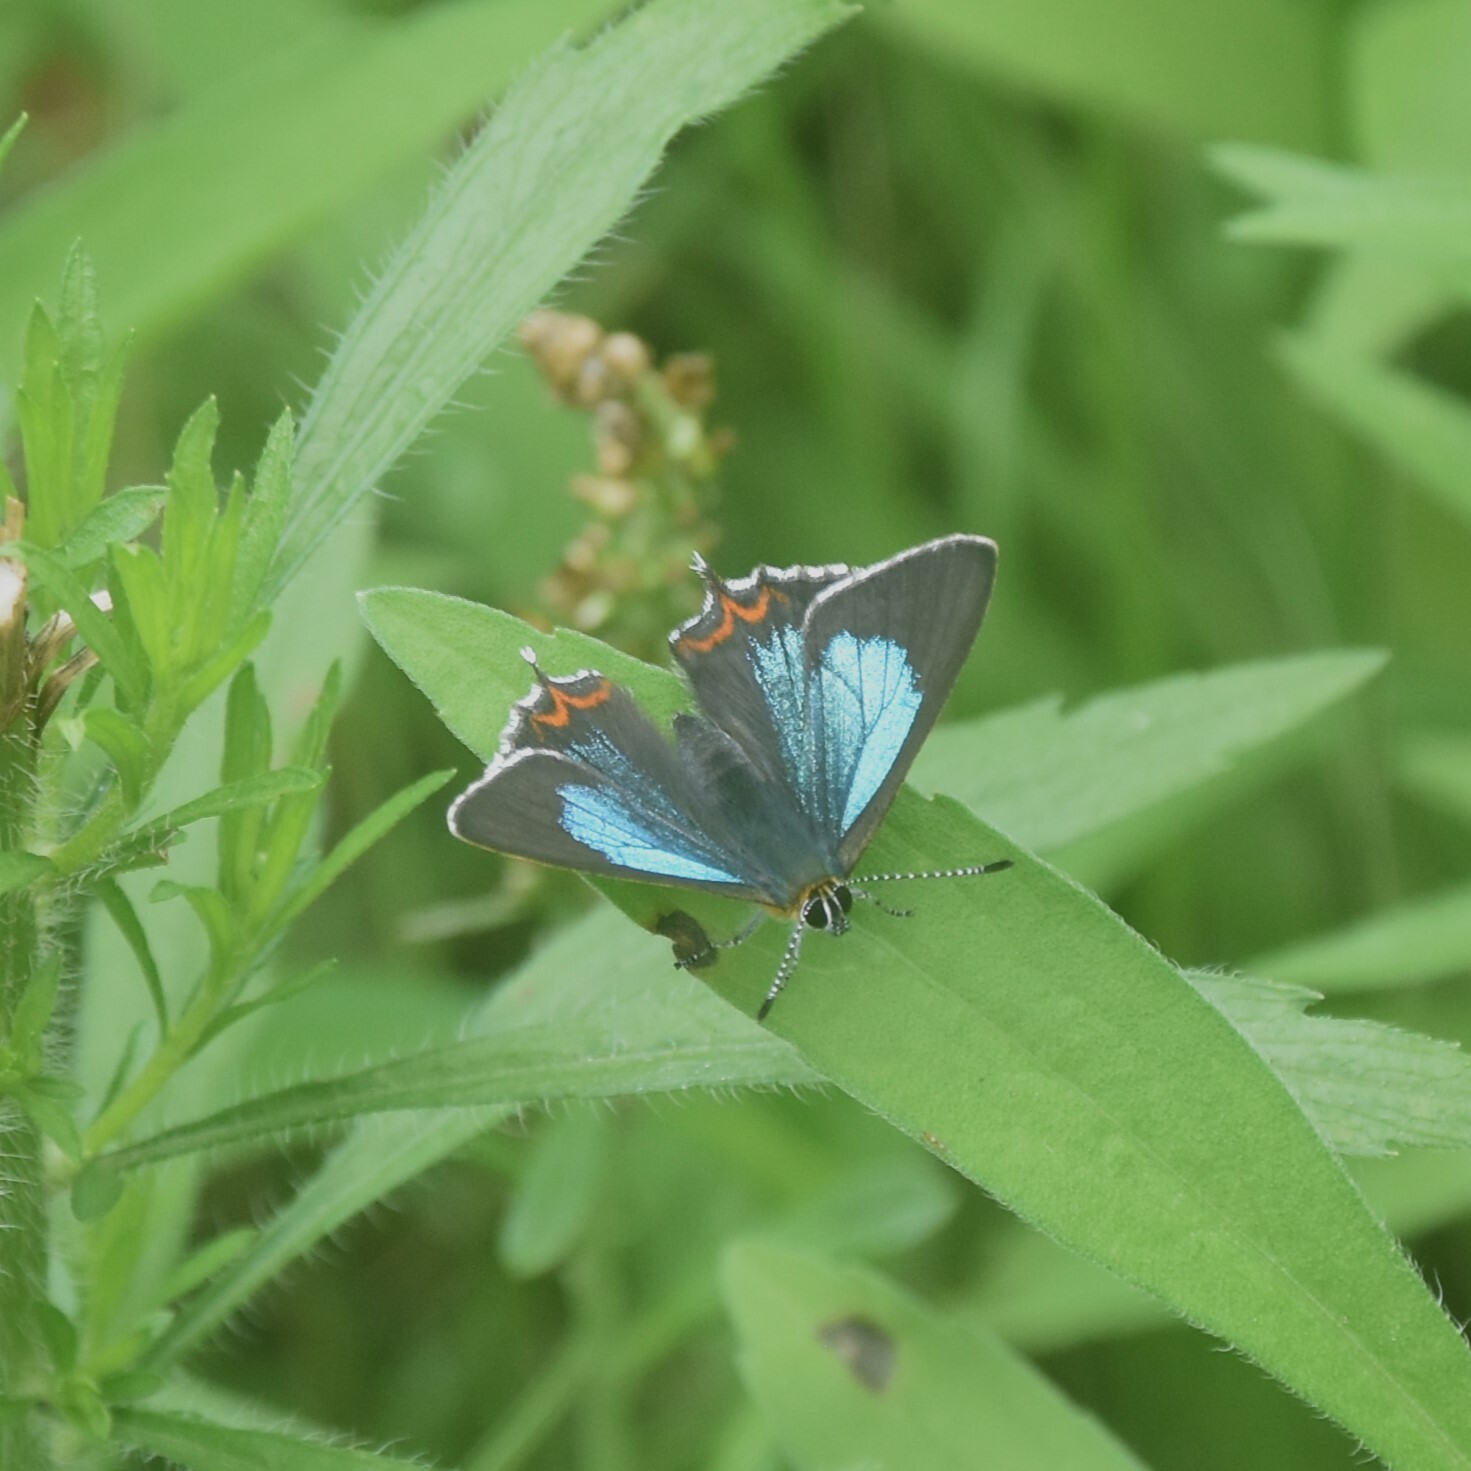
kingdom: Animalia
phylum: Arthropoda
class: Insecta
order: Lepidoptera
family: Lycaenidae
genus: Heliophorus
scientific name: Heliophorus
